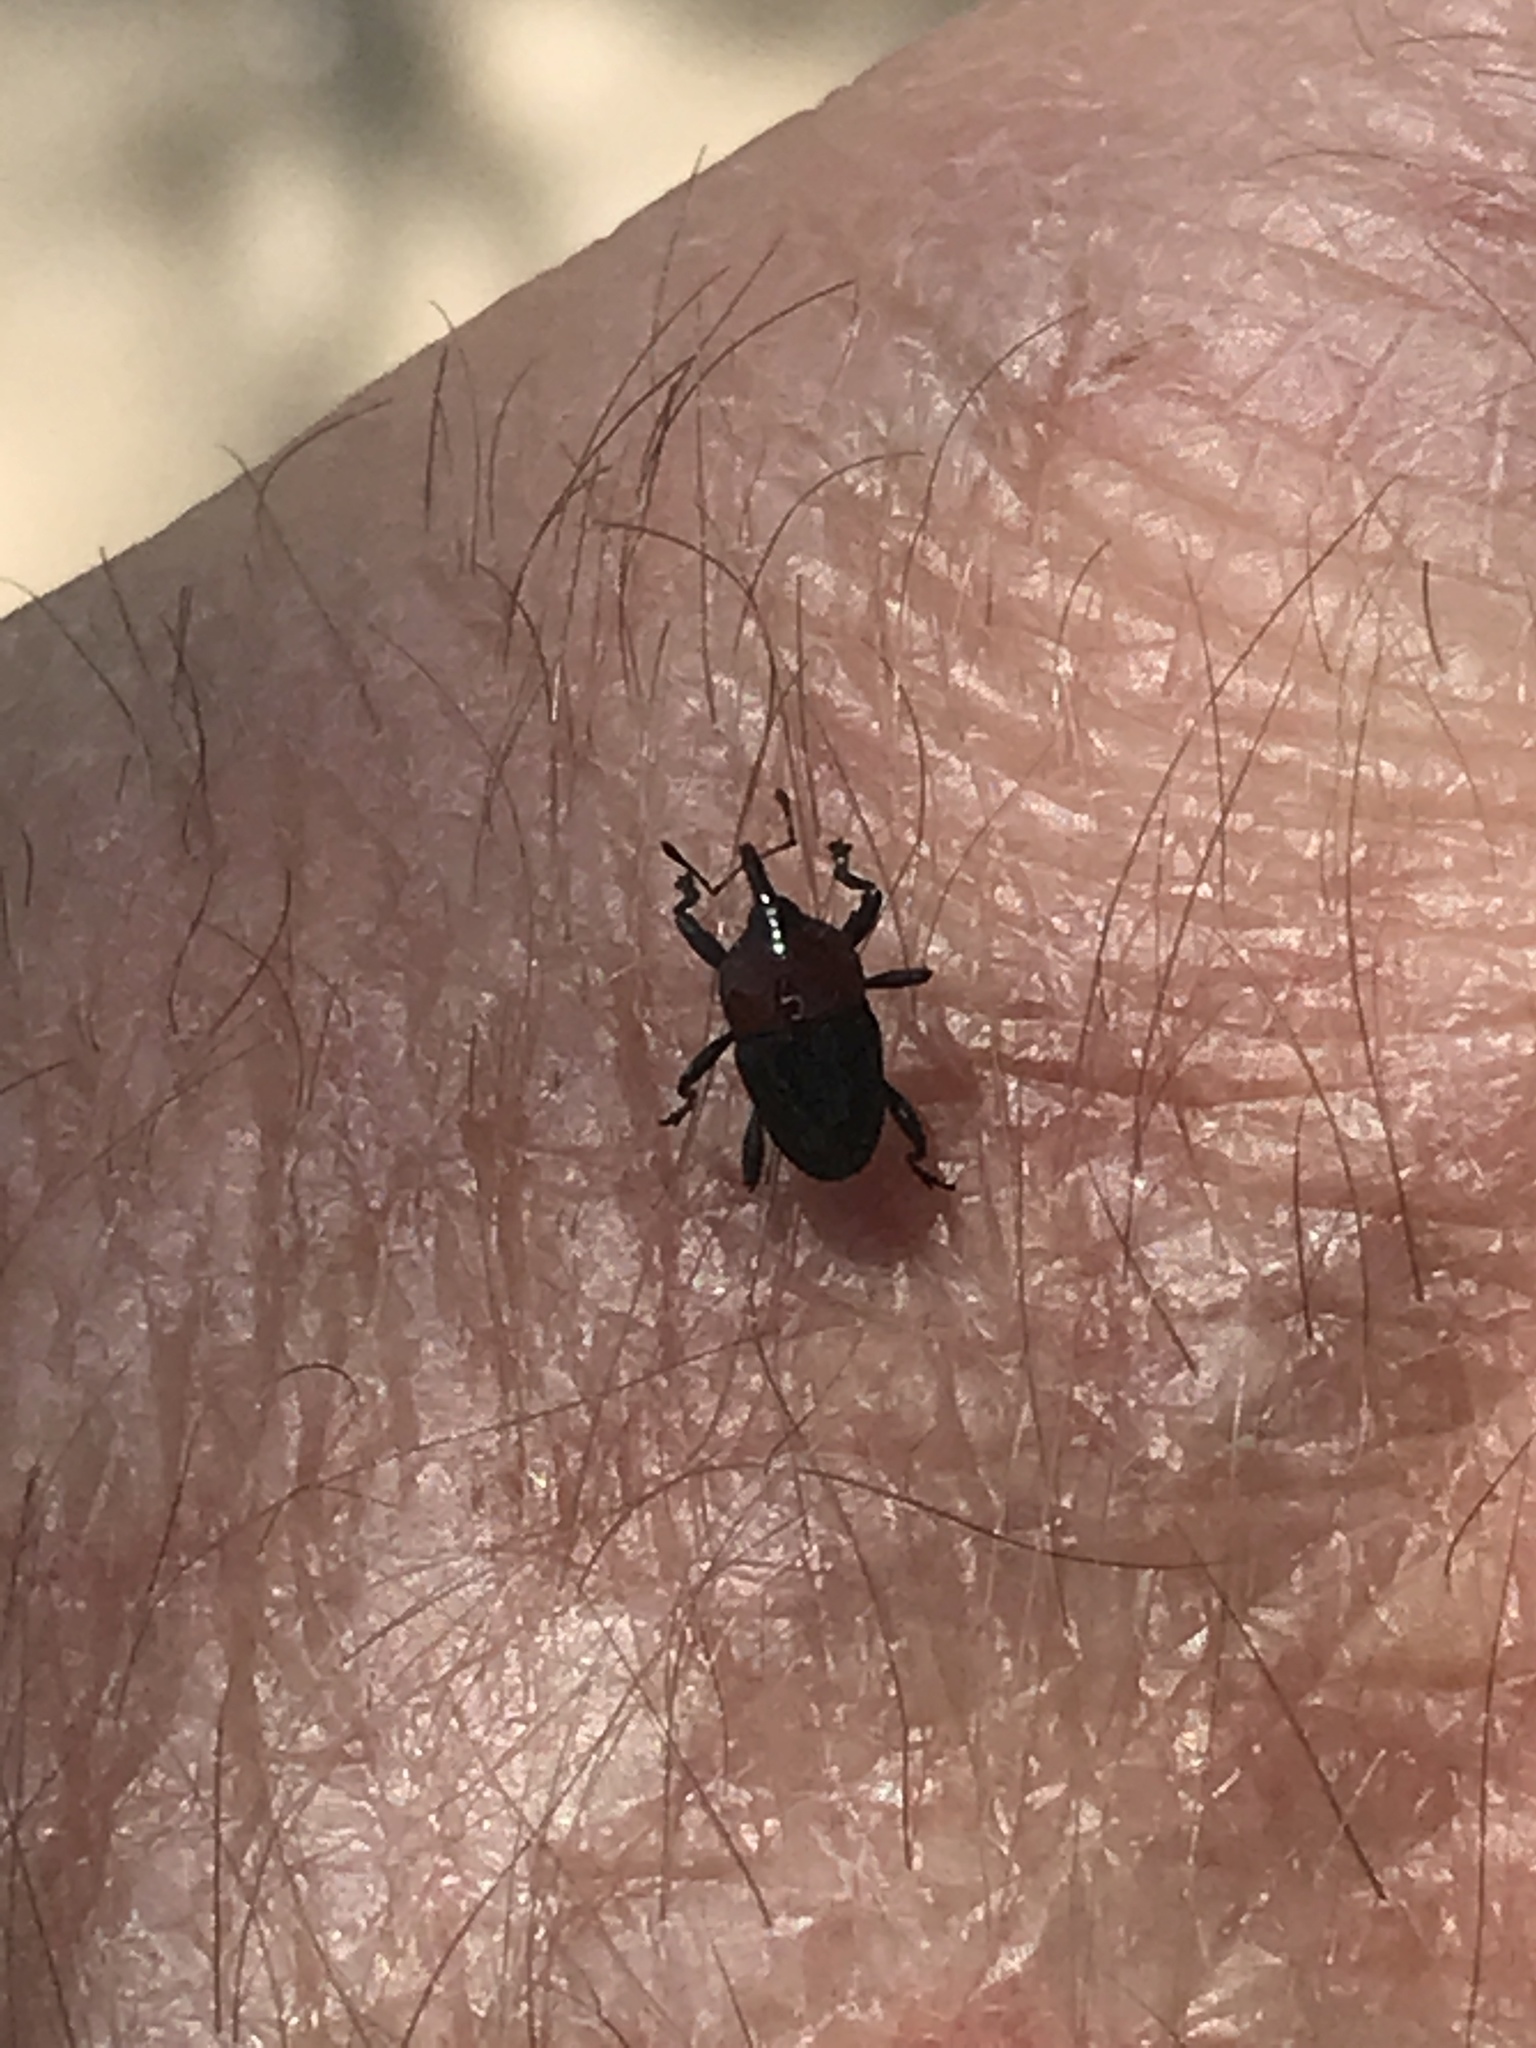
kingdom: Animalia
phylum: Arthropoda
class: Insecta
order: Coleoptera
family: Curculionidae
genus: Madarellus
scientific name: Madarellus undulatus
